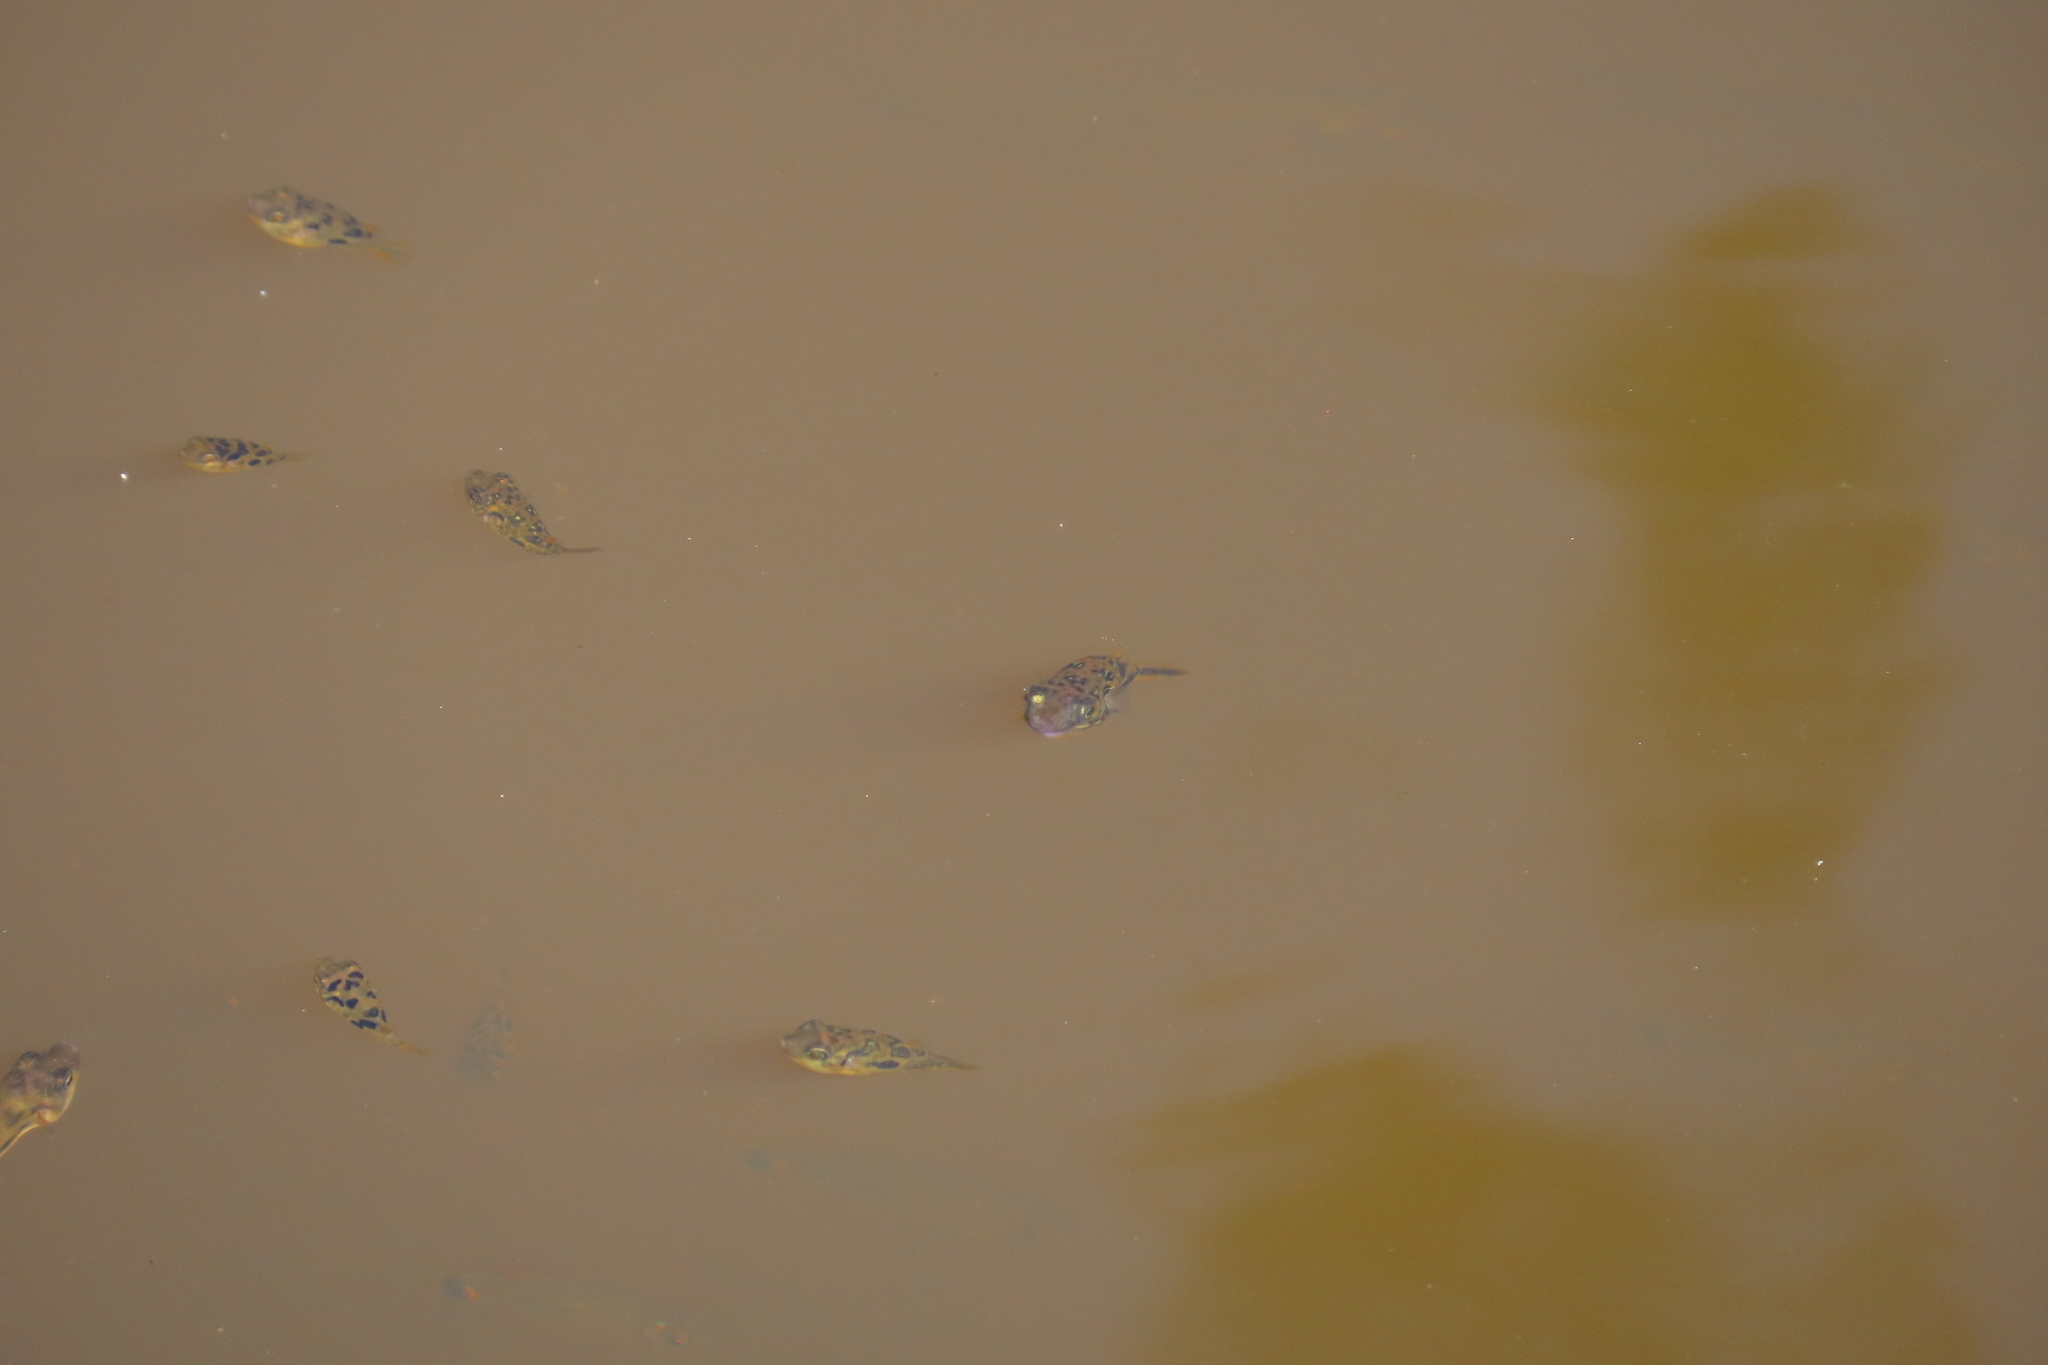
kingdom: Animalia
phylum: Chordata
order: Tetraodontiformes
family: Tetraodontidae
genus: Carinotetraodon
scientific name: Carinotetraodon travancoricus
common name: Dwarf indian puffer
